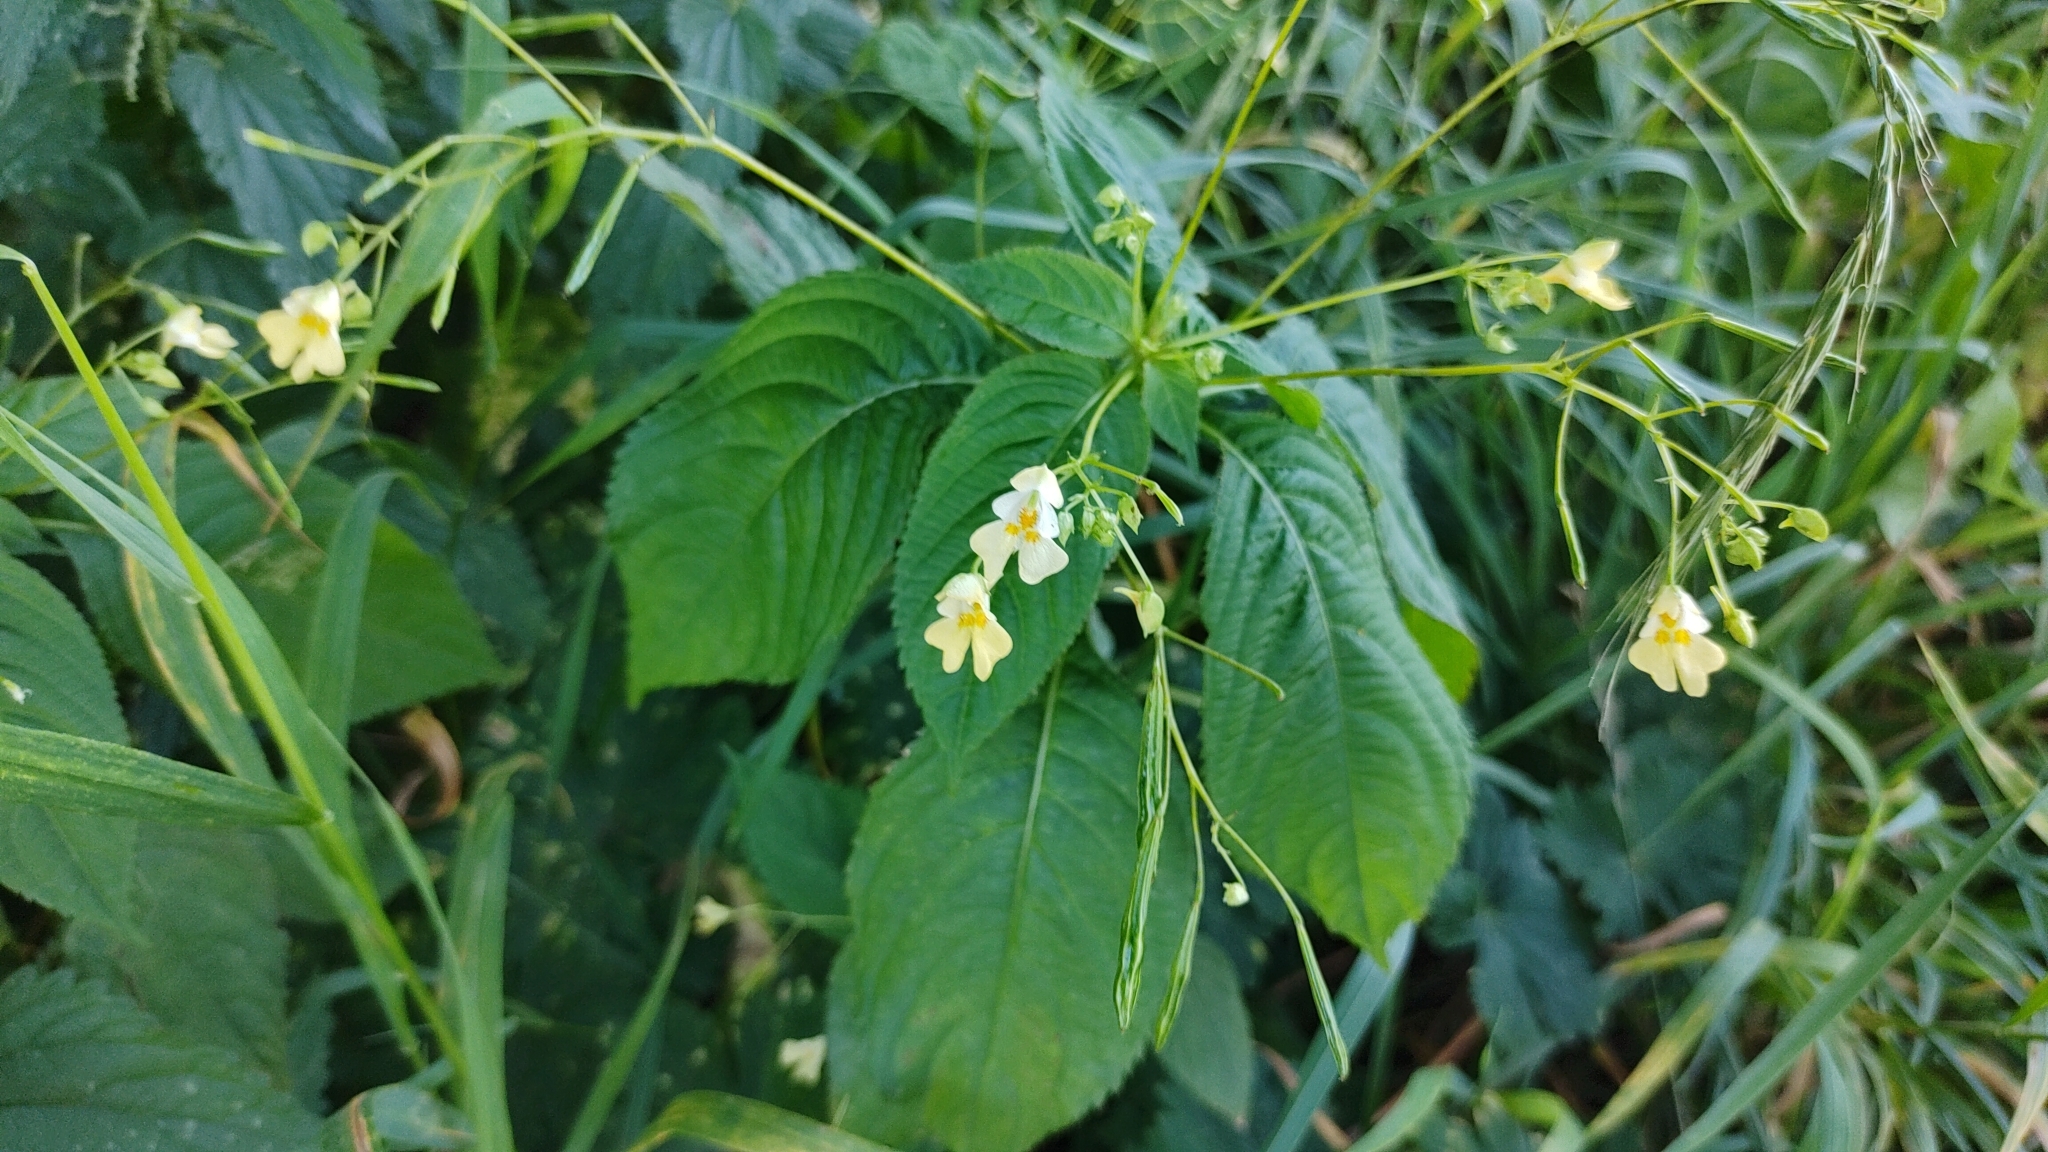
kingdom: Plantae
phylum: Tracheophyta
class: Magnoliopsida
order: Ericales
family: Balsaminaceae
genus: Impatiens
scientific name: Impatiens parviflora
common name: Small balsam
